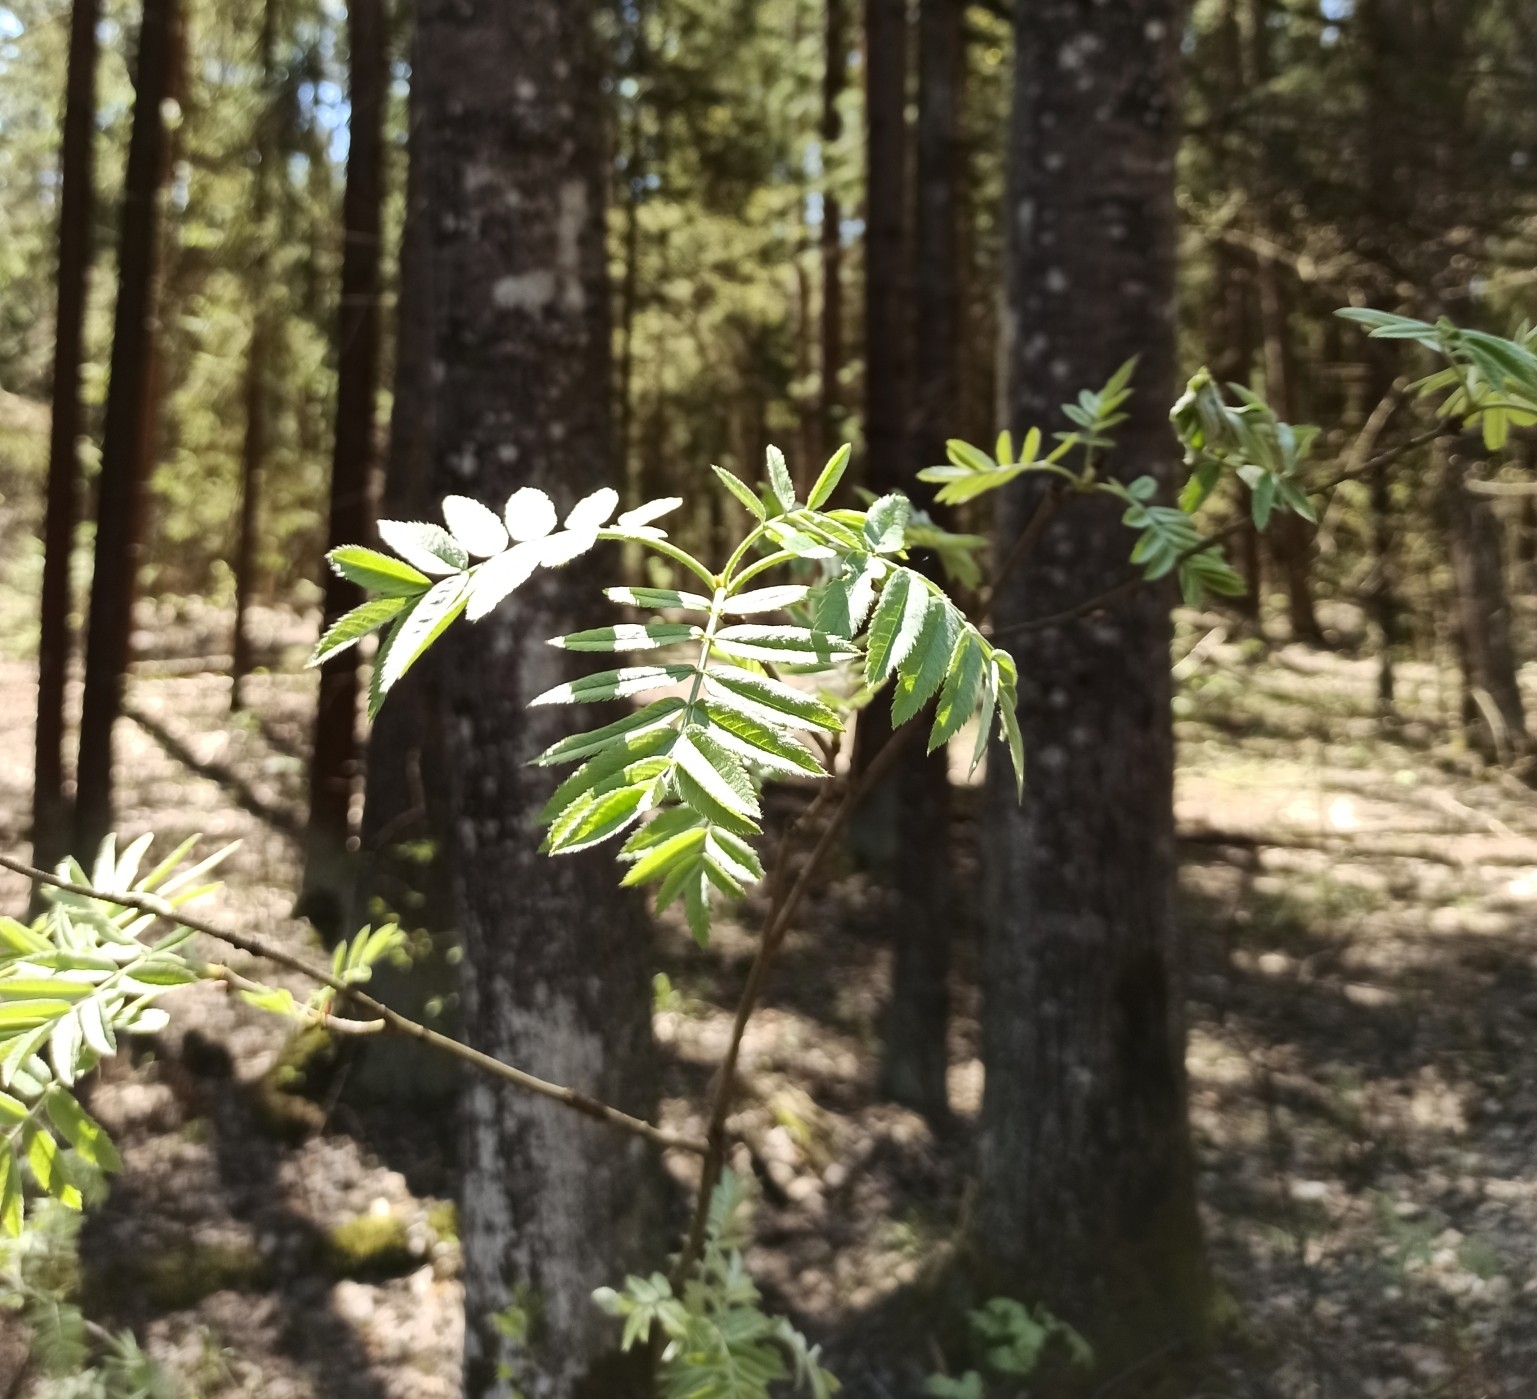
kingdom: Plantae
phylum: Tracheophyta
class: Magnoliopsida
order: Rosales
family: Rosaceae
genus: Sorbus
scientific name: Sorbus aucuparia
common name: Rowan
